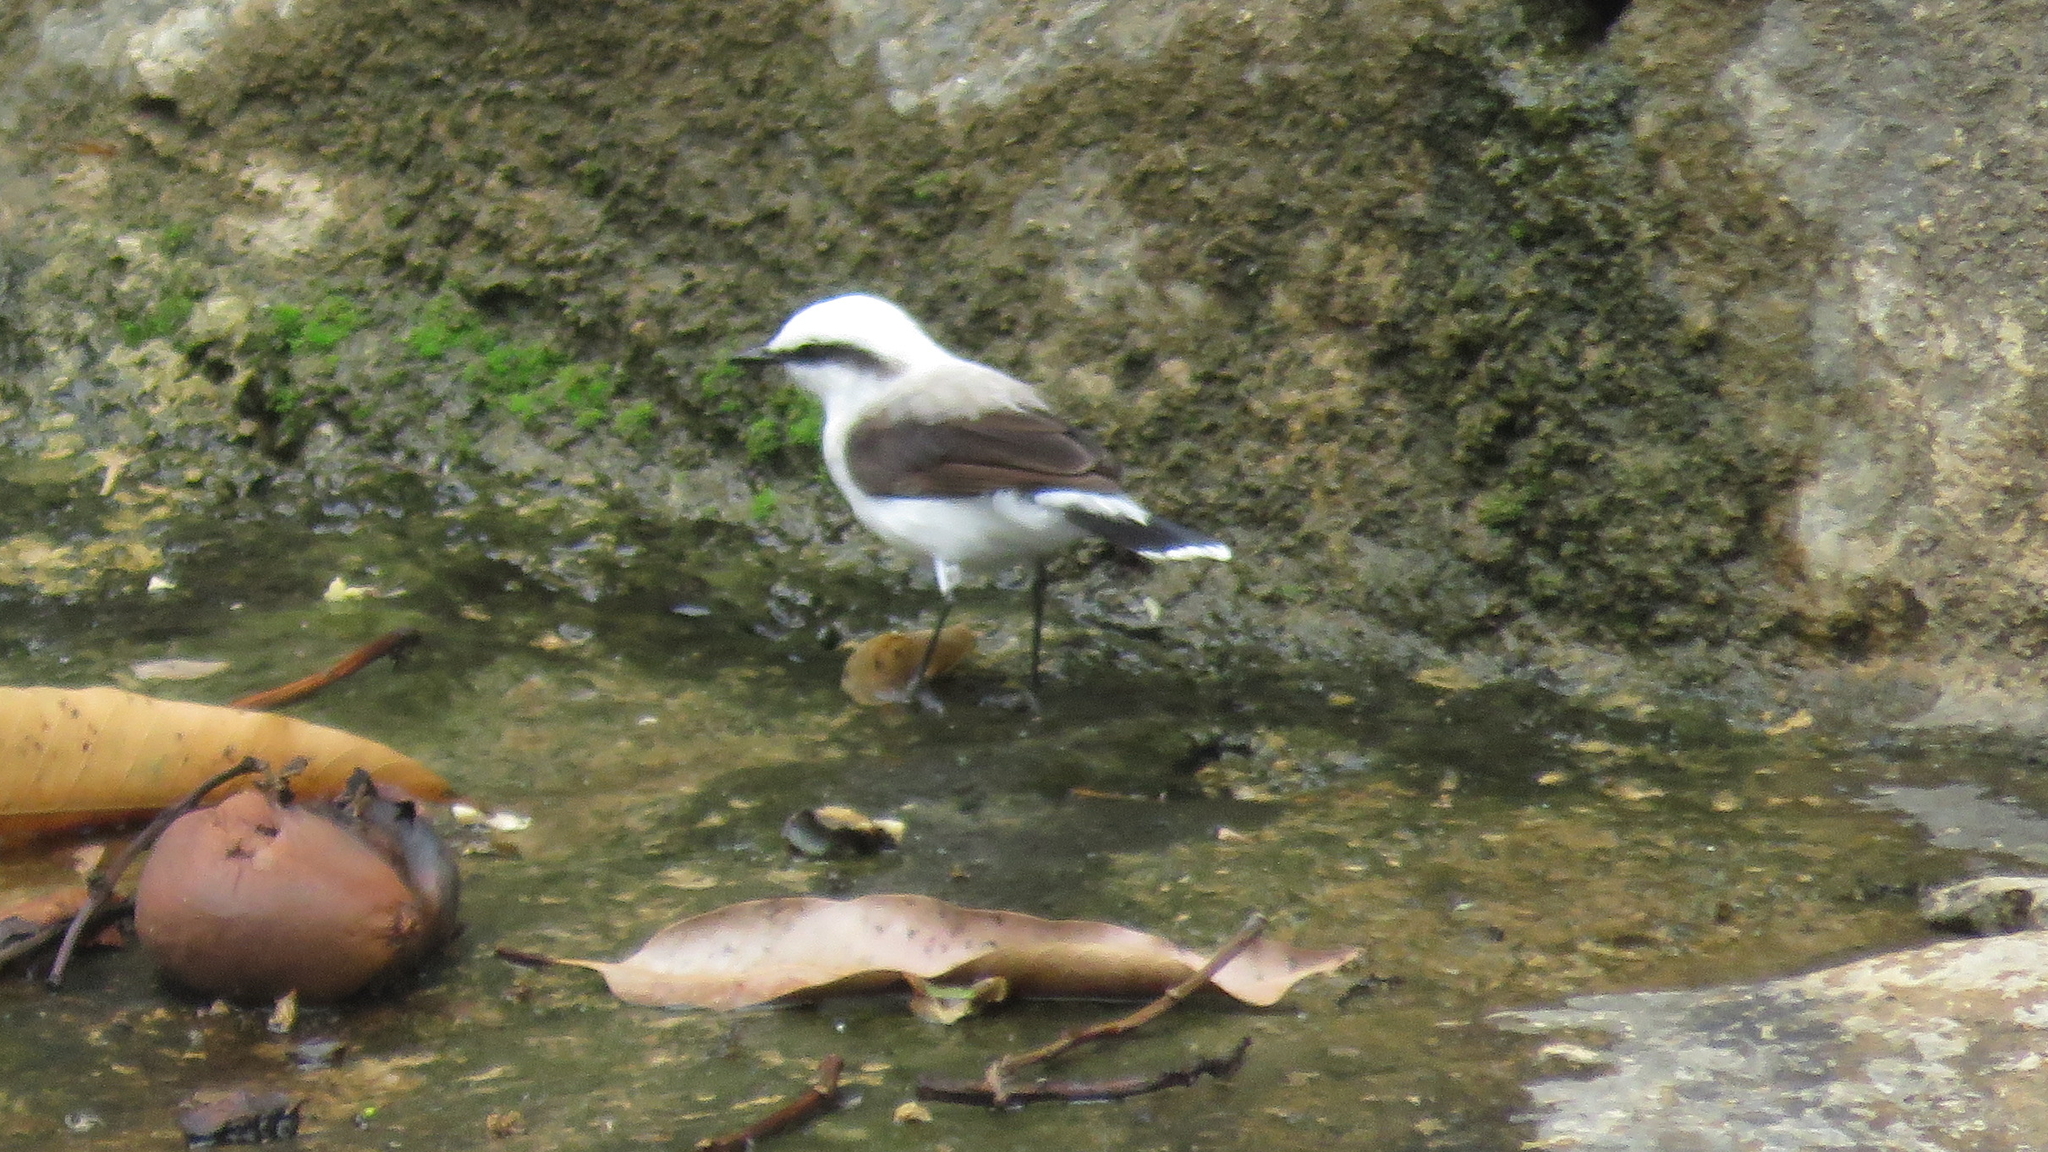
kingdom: Animalia
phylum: Chordata
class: Aves
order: Passeriformes
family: Tyrannidae
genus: Fluvicola
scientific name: Fluvicola nengeta
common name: Masked water tyrant
